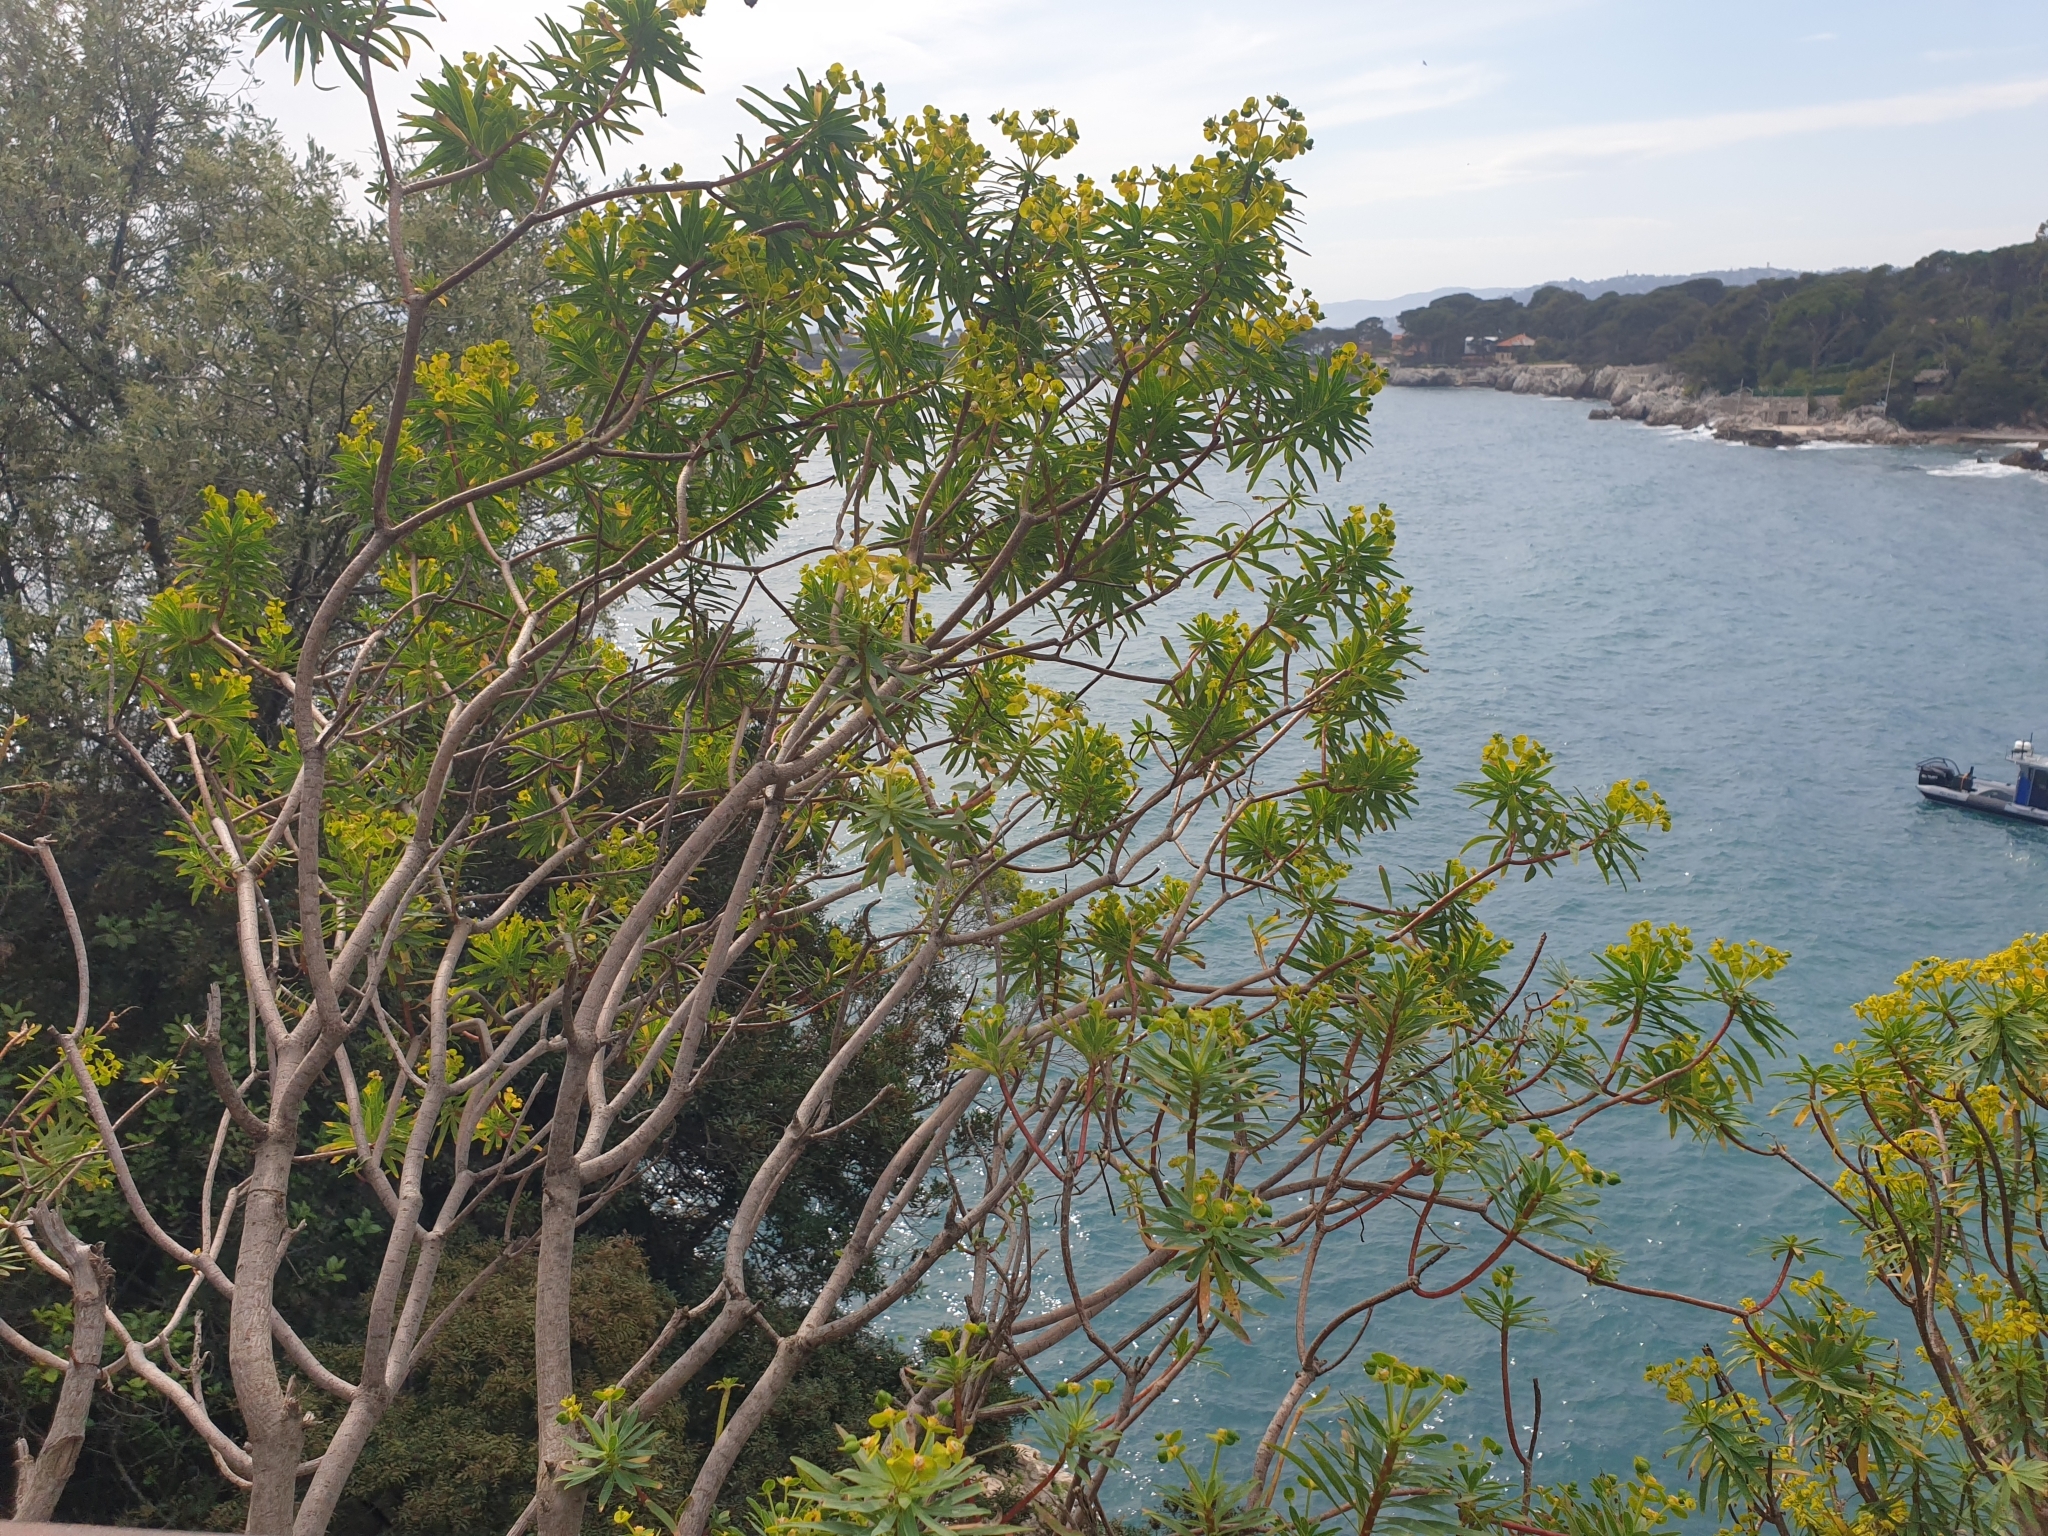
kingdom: Plantae
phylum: Tracheophyta
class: Magnoliopsida
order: Malpighiales
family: Euphorbiaceae
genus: Euphorbia
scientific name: Euphorbia dendroides
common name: Tree spurge
